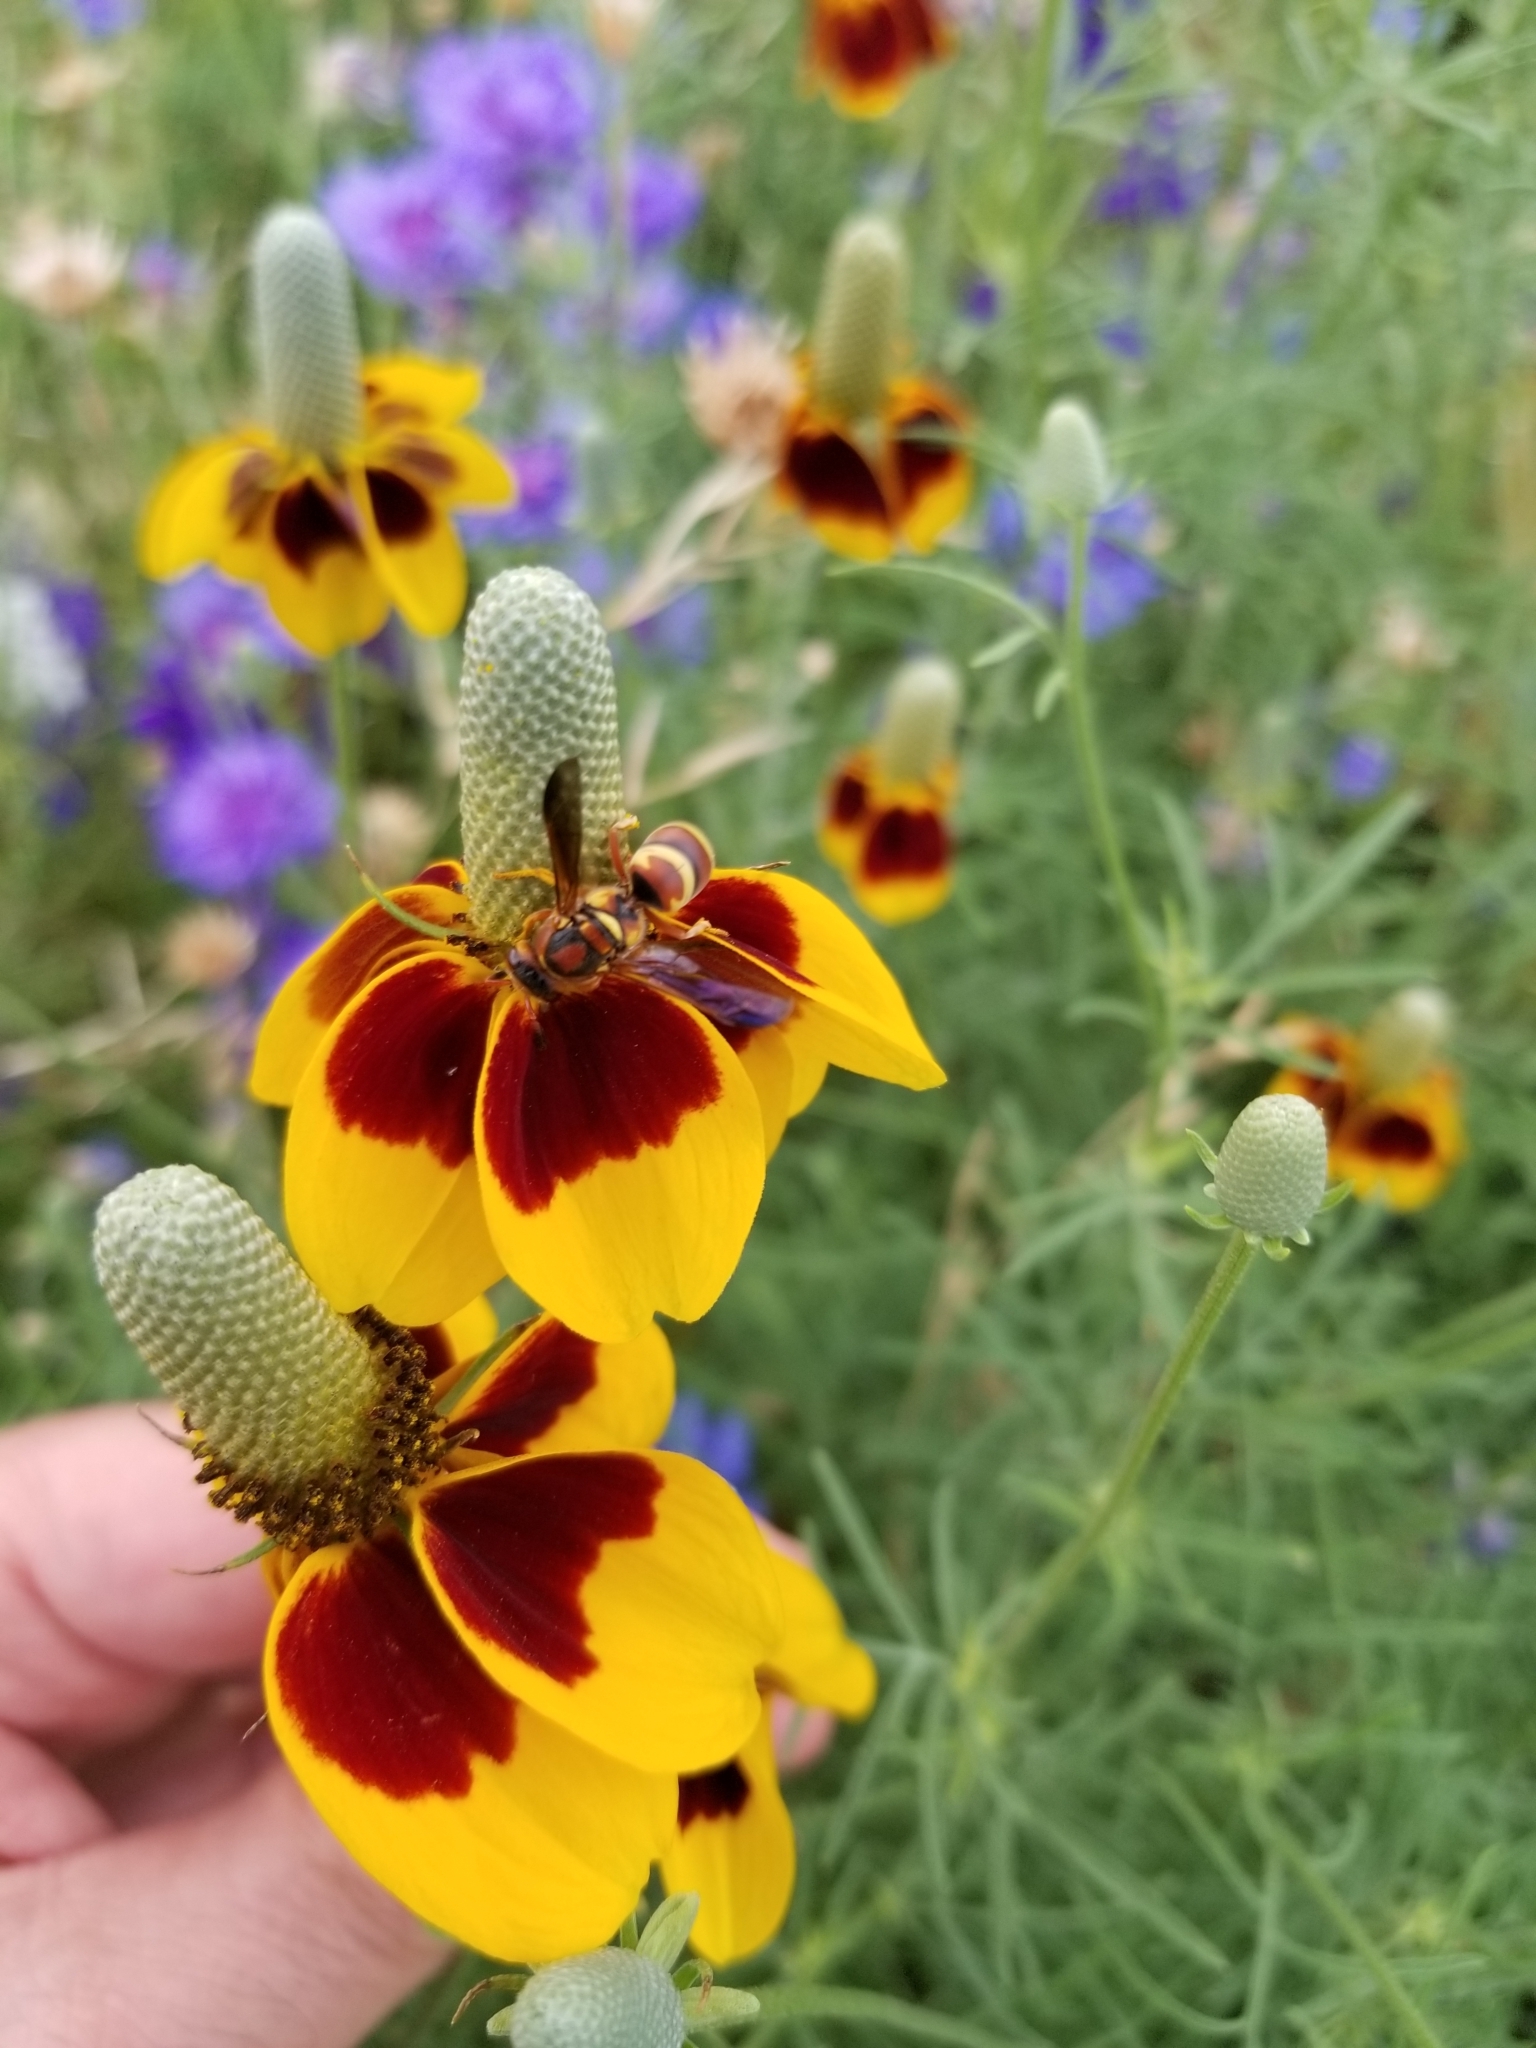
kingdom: Animalia
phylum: Arthropoda
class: Insecta
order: Hymenoptera
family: Eumenidae
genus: Euodynerus
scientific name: Euodynerus pratensis
